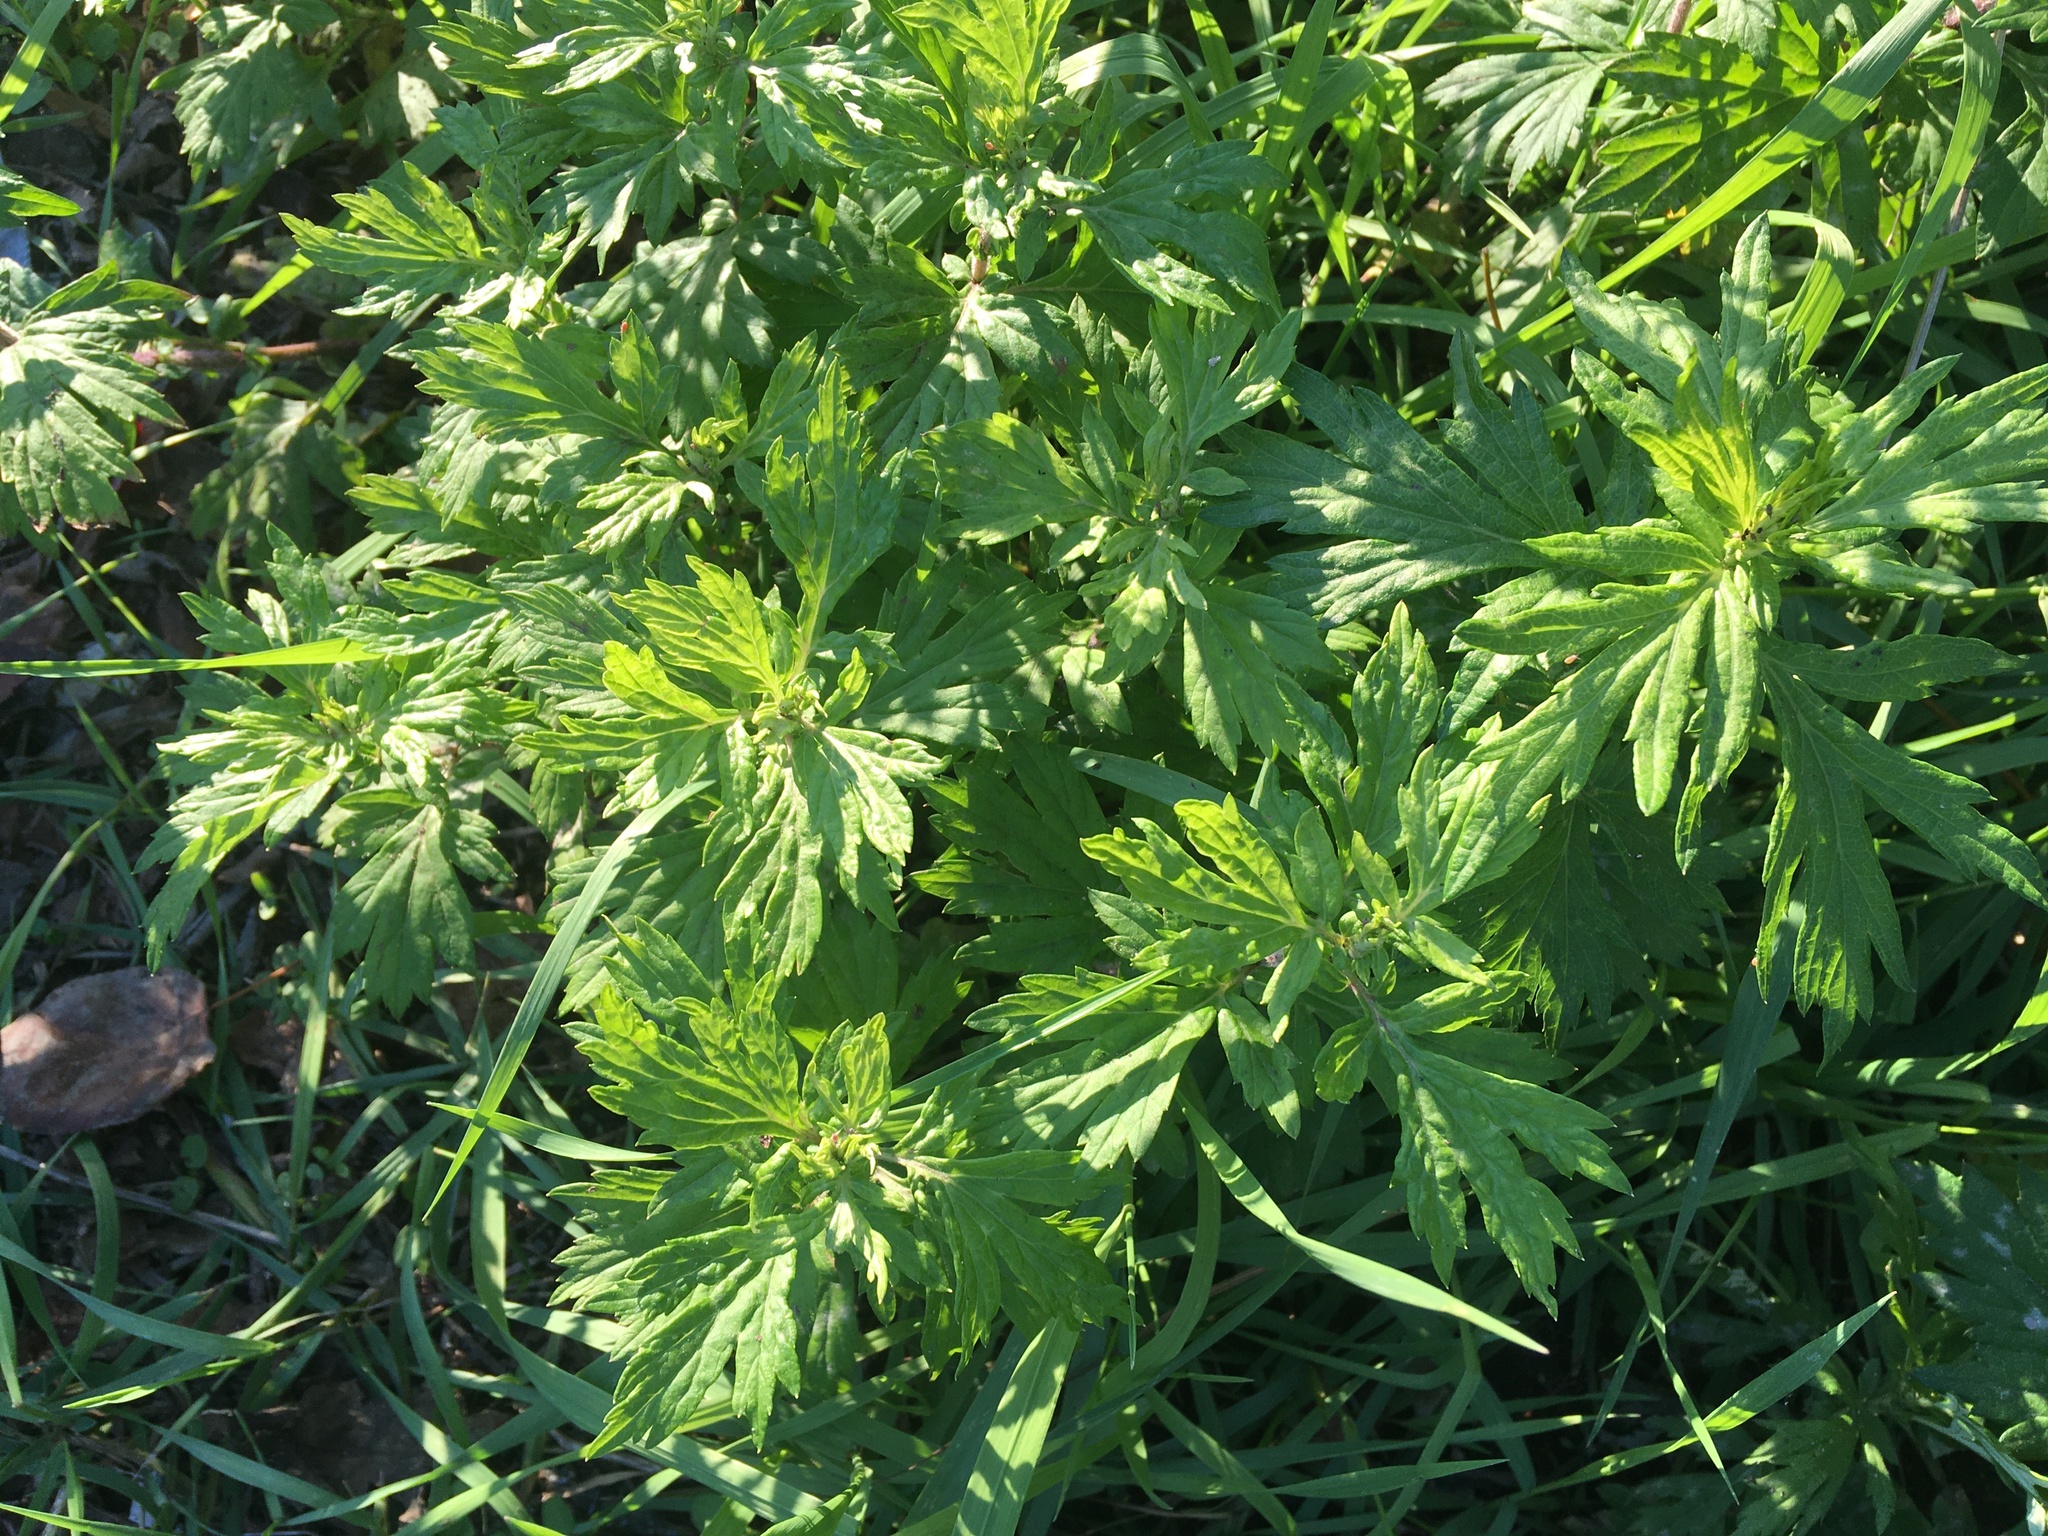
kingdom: Plantae
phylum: Tracheophyta
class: Magnoliopsida
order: Asterales
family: Asteraceae
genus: Artemisia
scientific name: Artemisia vulgaris
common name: Mugwort
